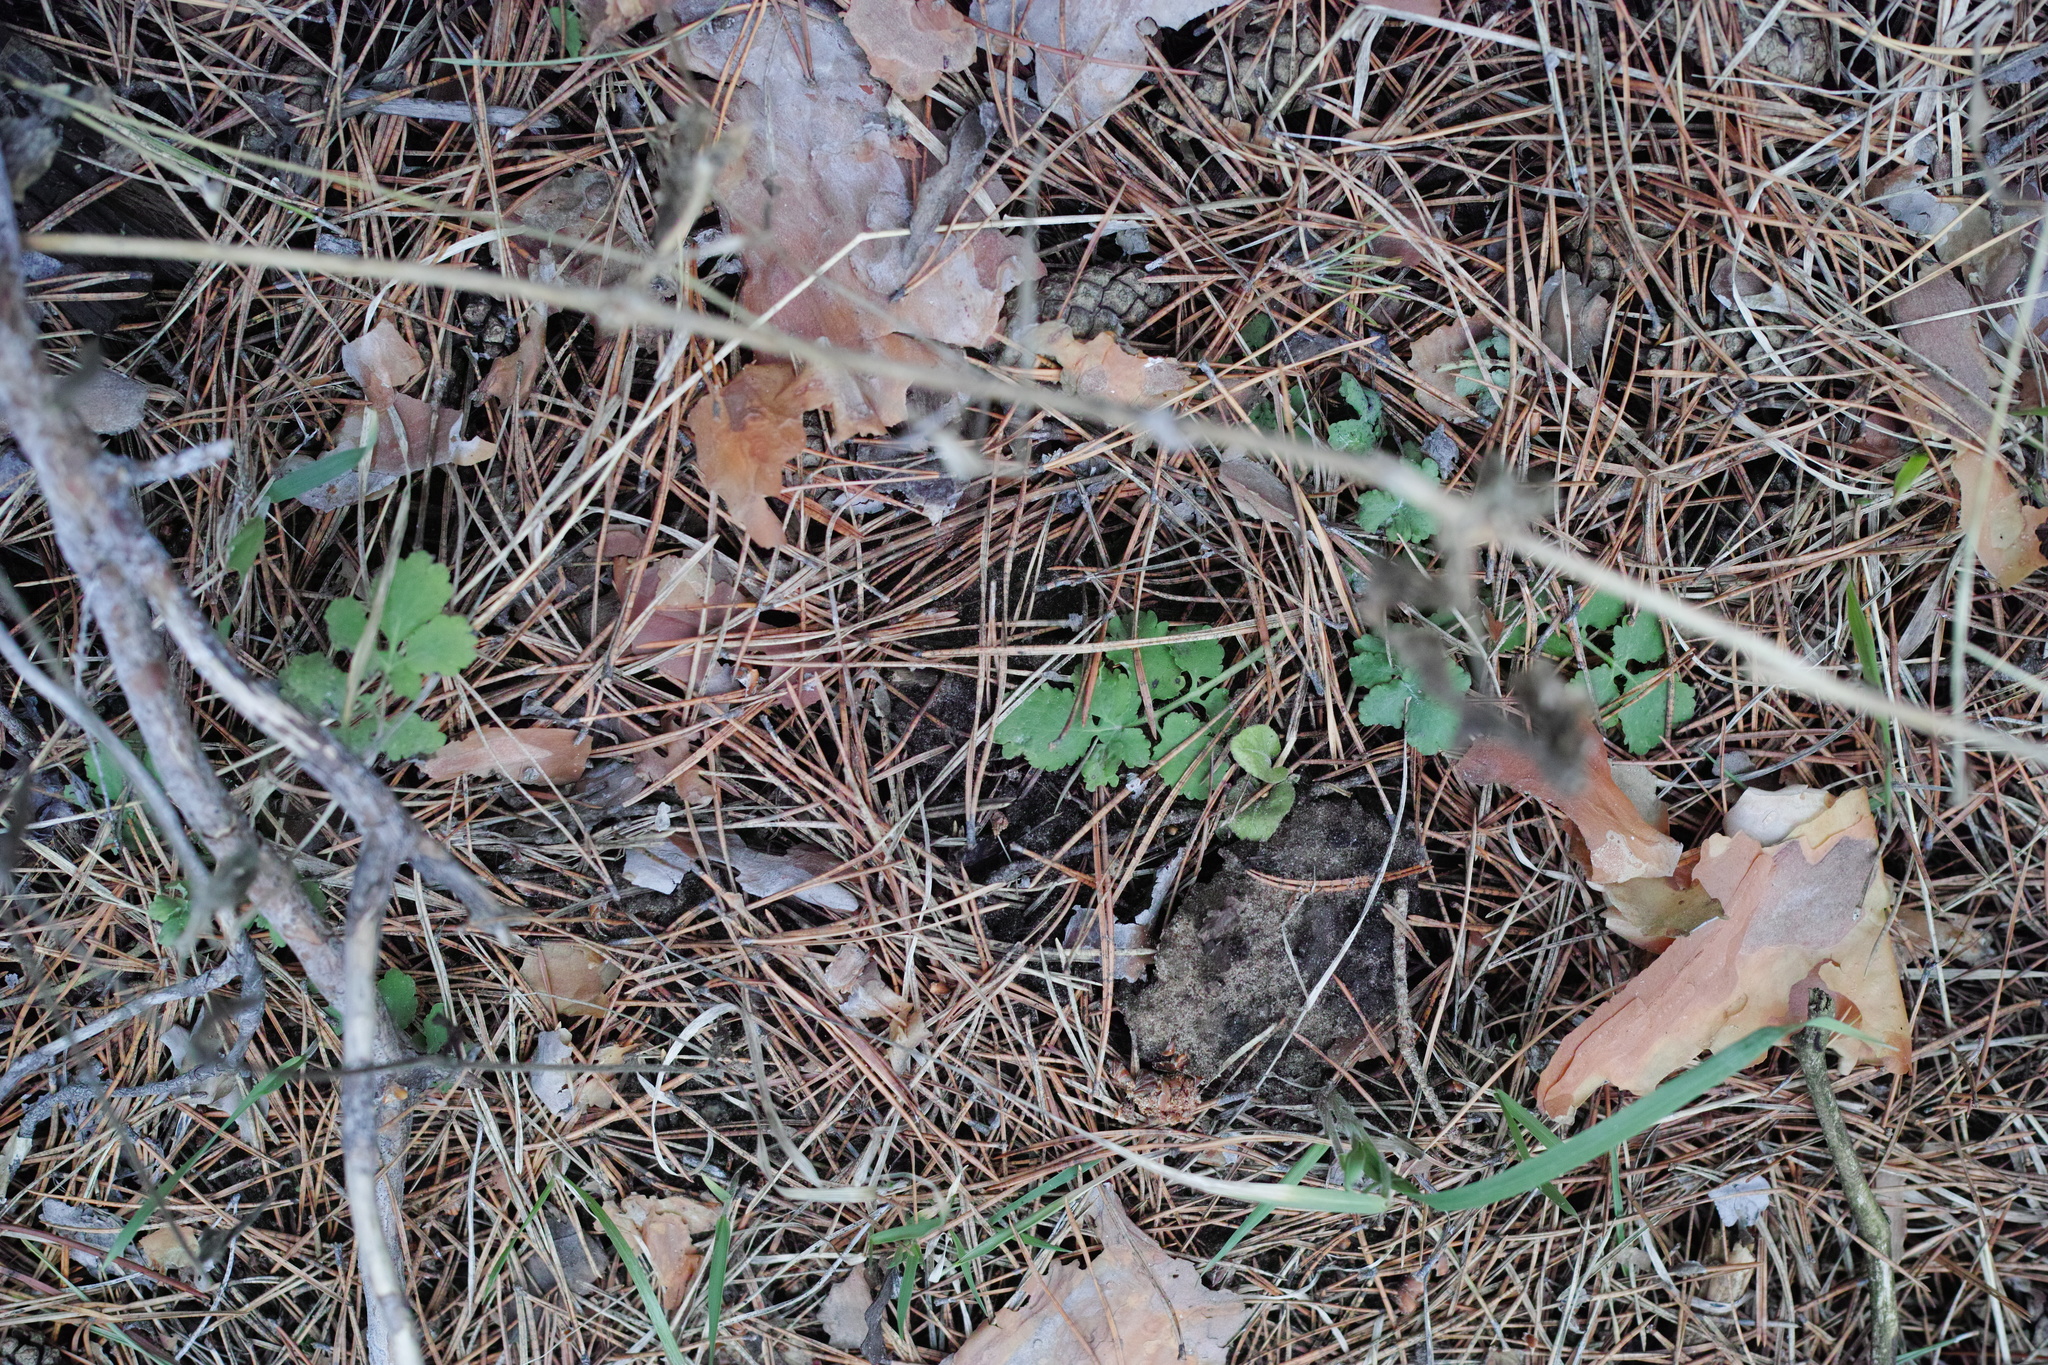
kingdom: Plantae
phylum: Tracheophyta
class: Magnoliopsida
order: Ranunculales
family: Papaveraceae
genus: Chelidonium
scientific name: Chelidonium majus
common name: Greater celandine
